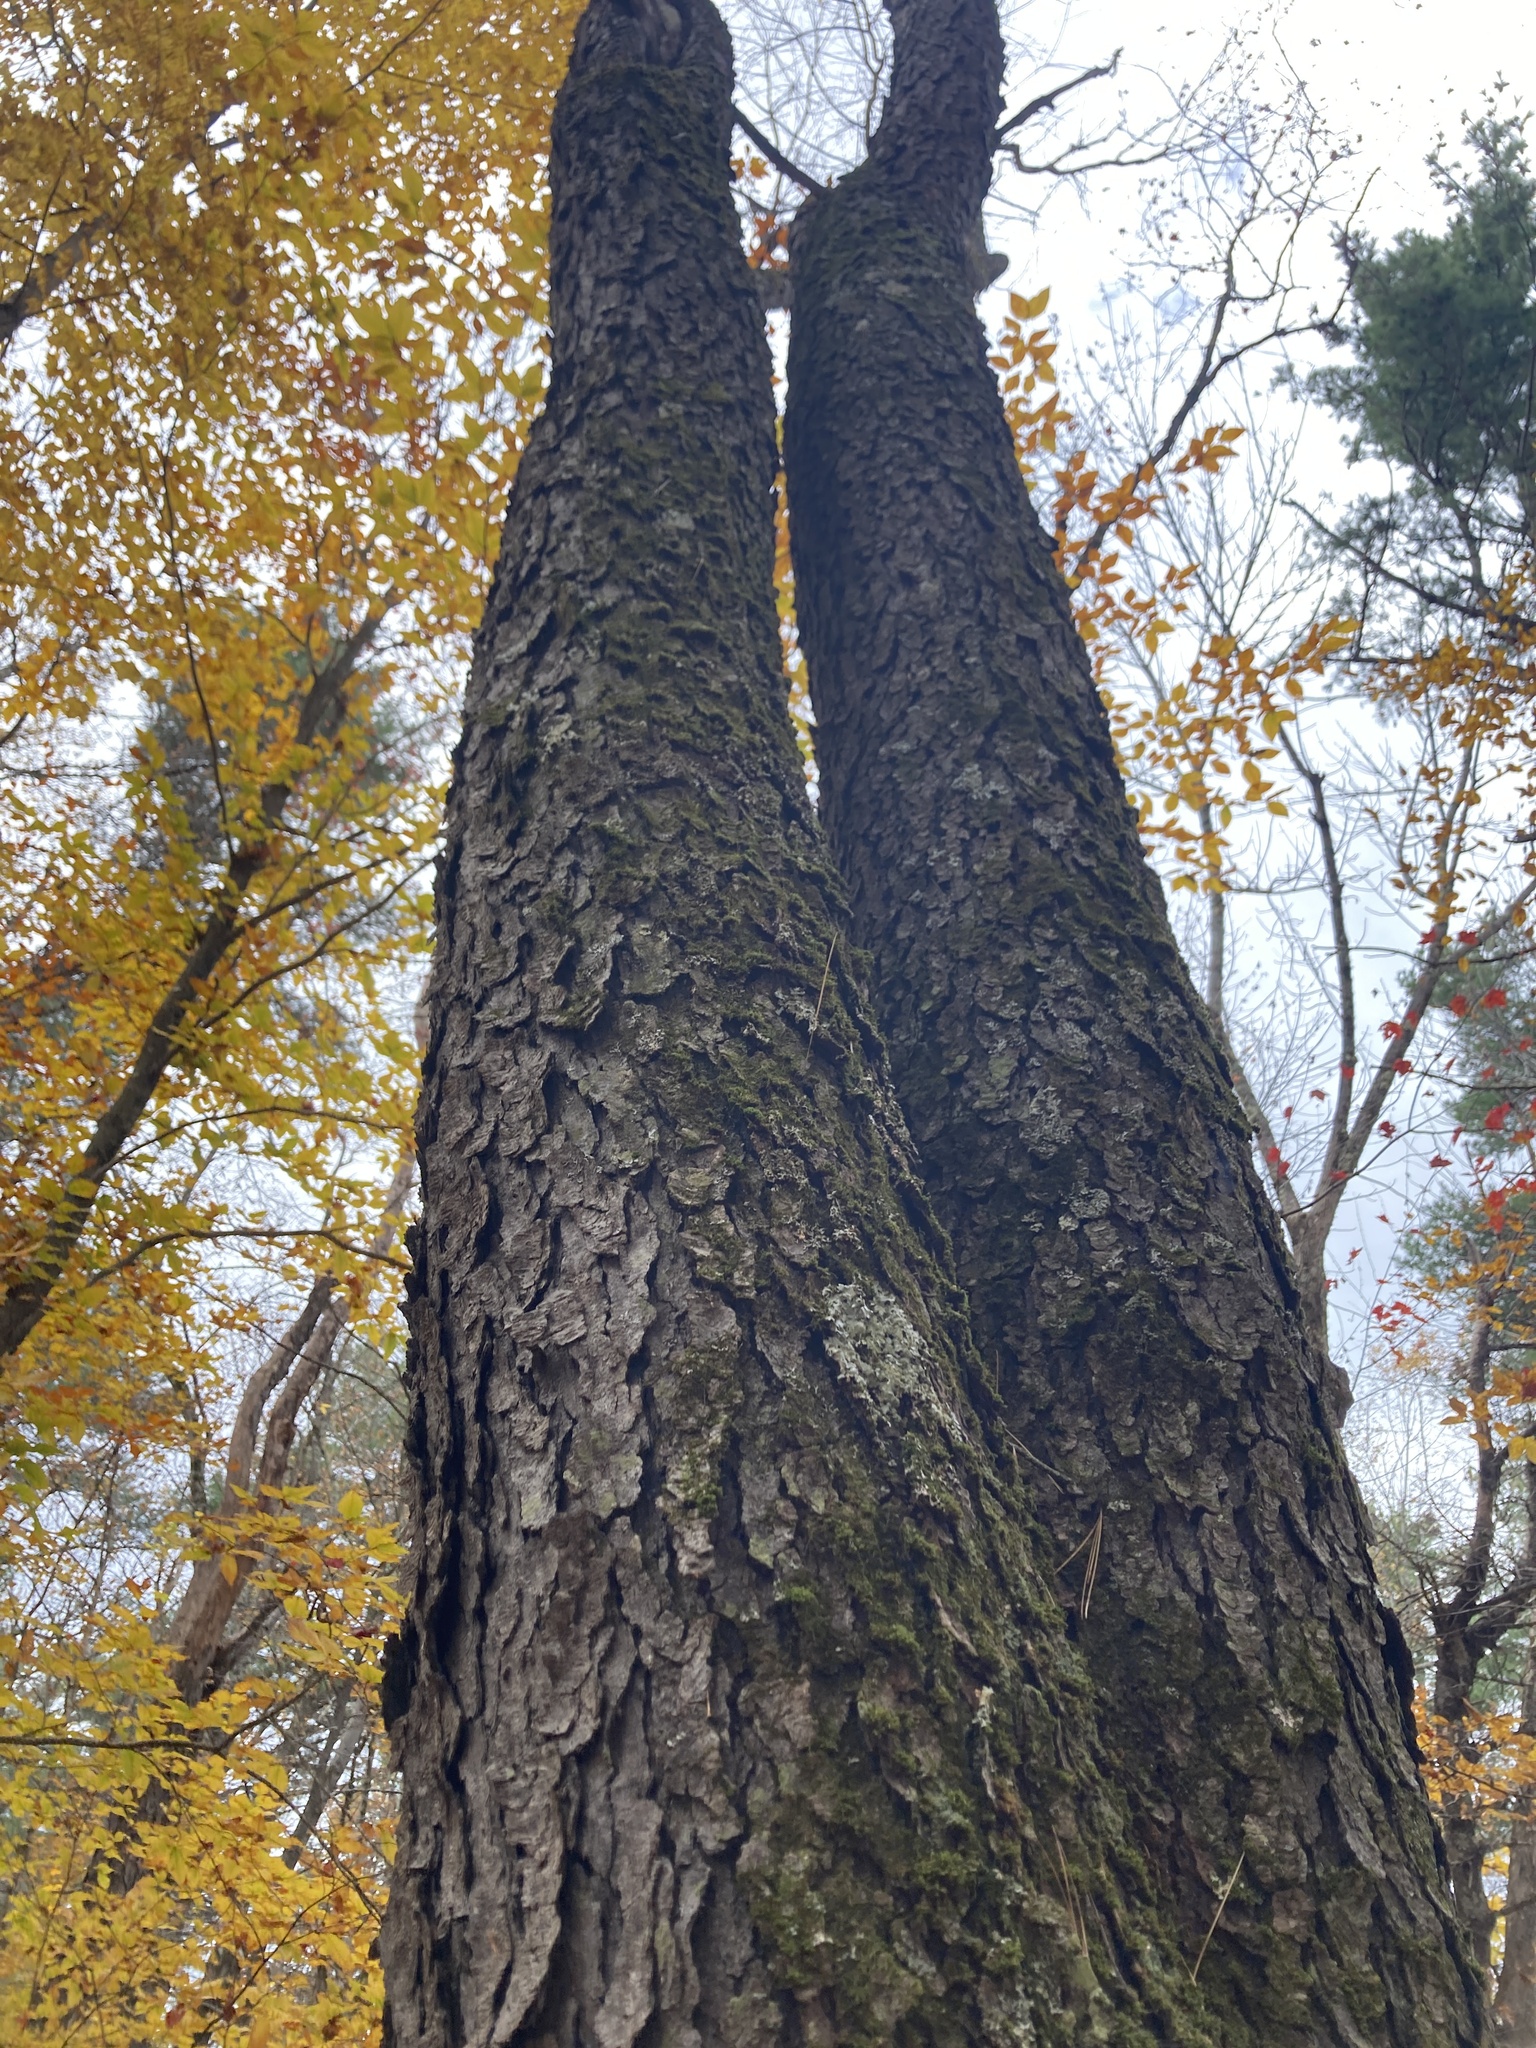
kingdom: Plantae
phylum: Tracheophyta
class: Magnoliopsida
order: Rosales
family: Rosaceae
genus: Prunus
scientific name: Prunus serotina
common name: Black cherry
